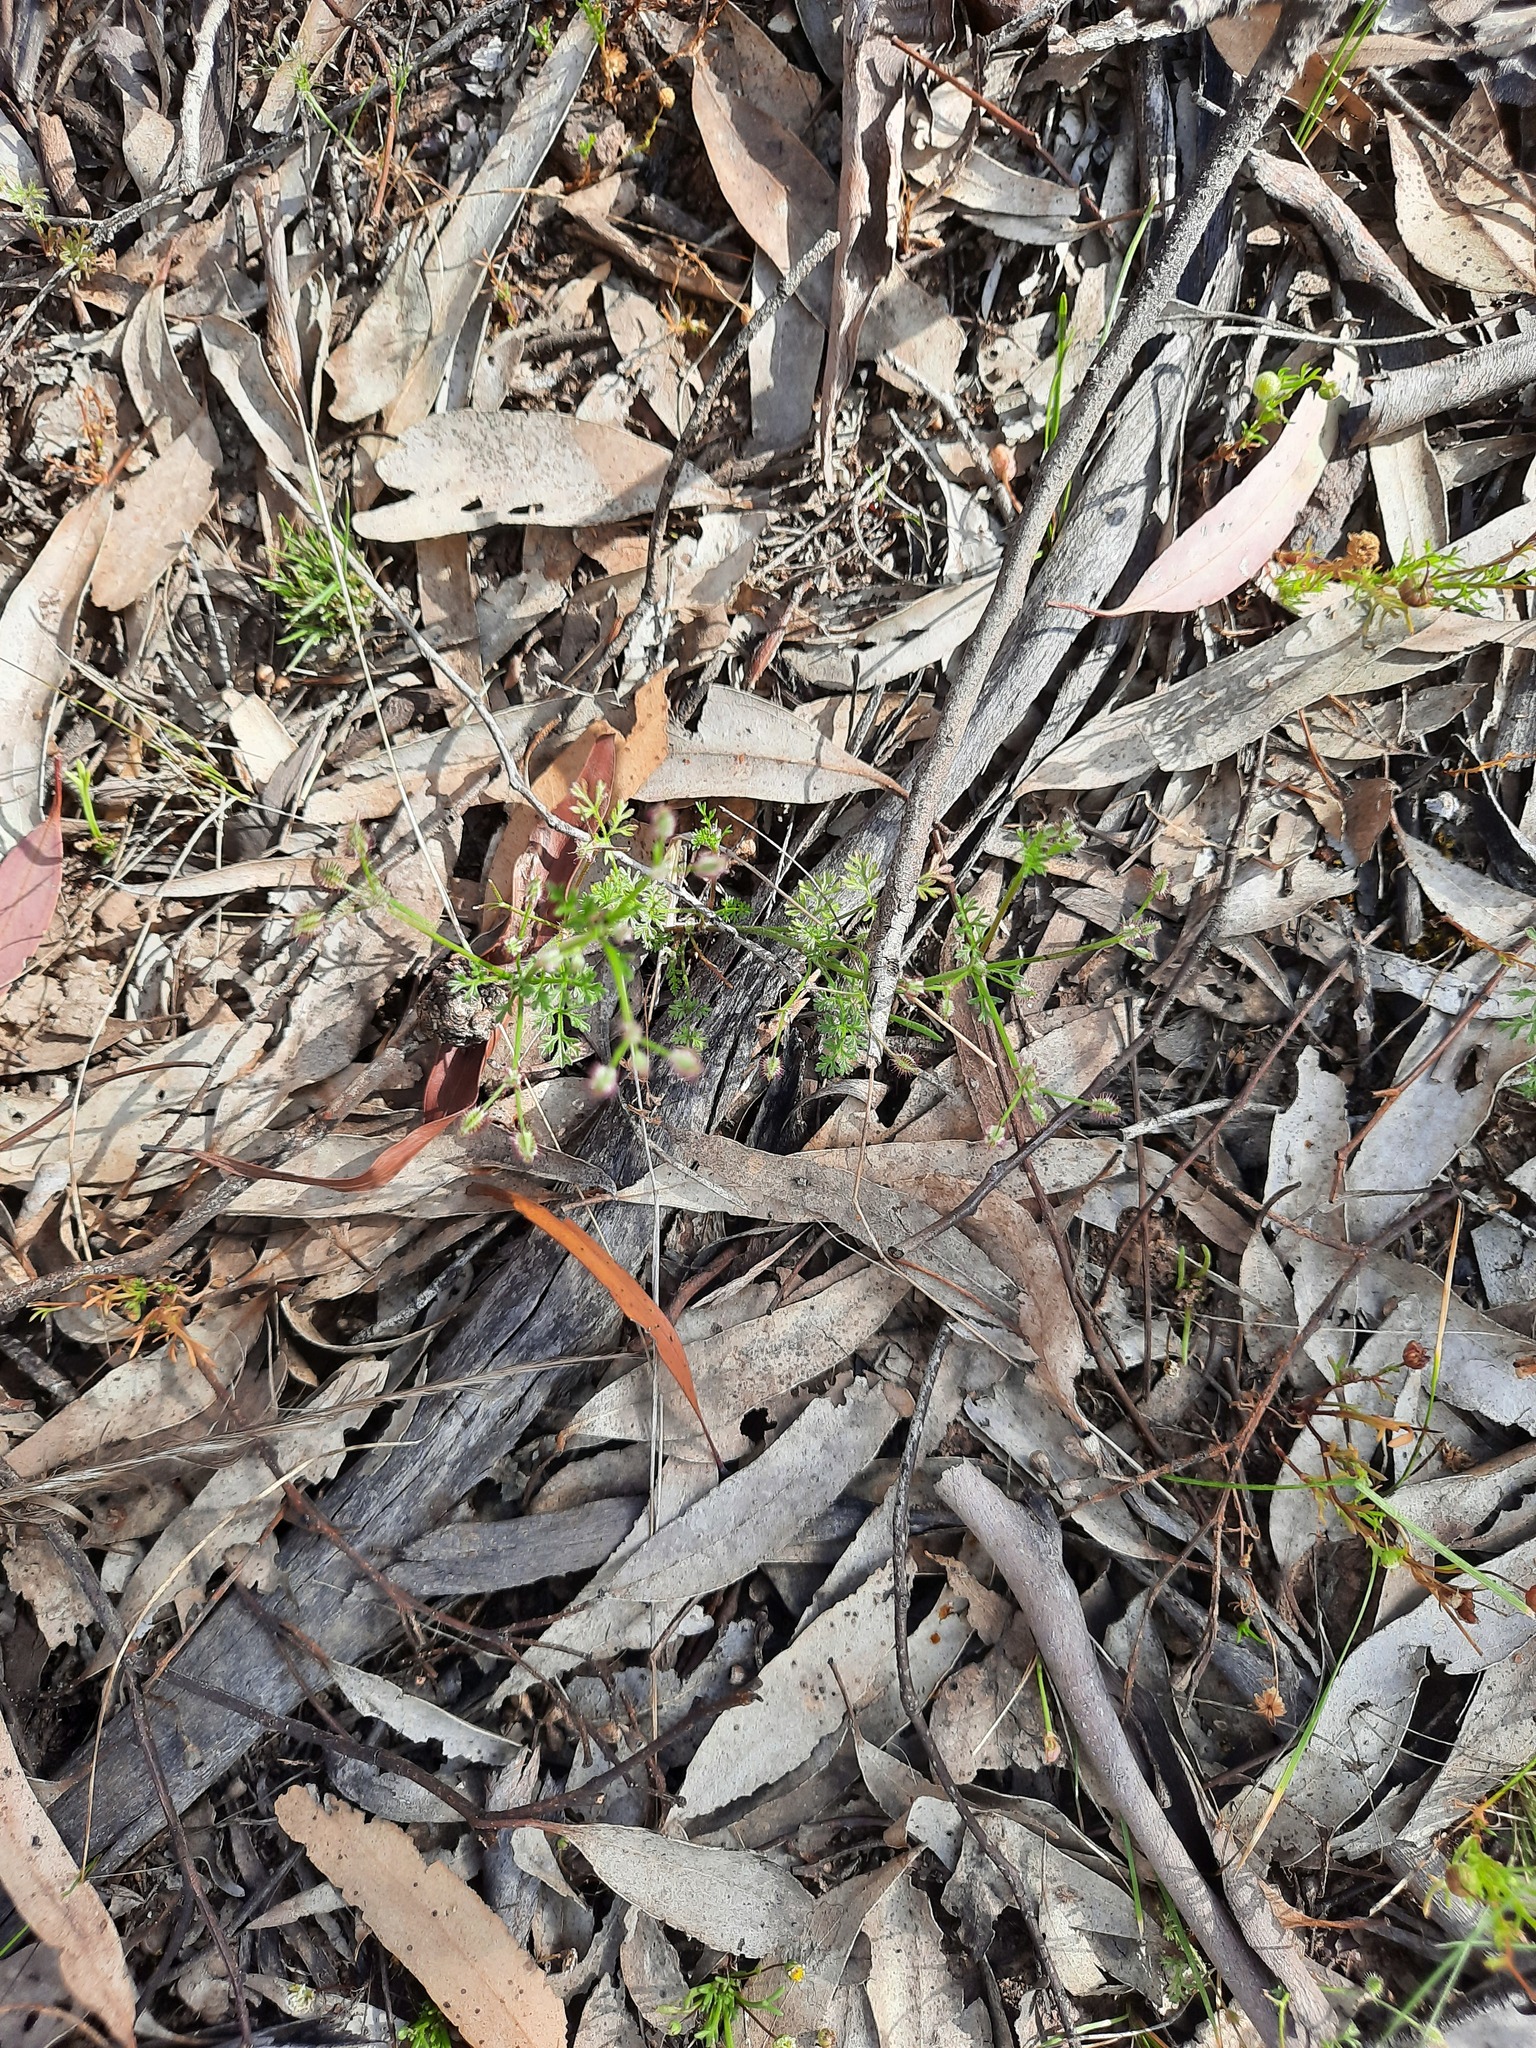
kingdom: Plantae
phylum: Tracheophyta
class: Magnoliopsida
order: Apiales
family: Apiaceae
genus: Daucus
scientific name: Daucus glochidiatus
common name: Australian carrot
